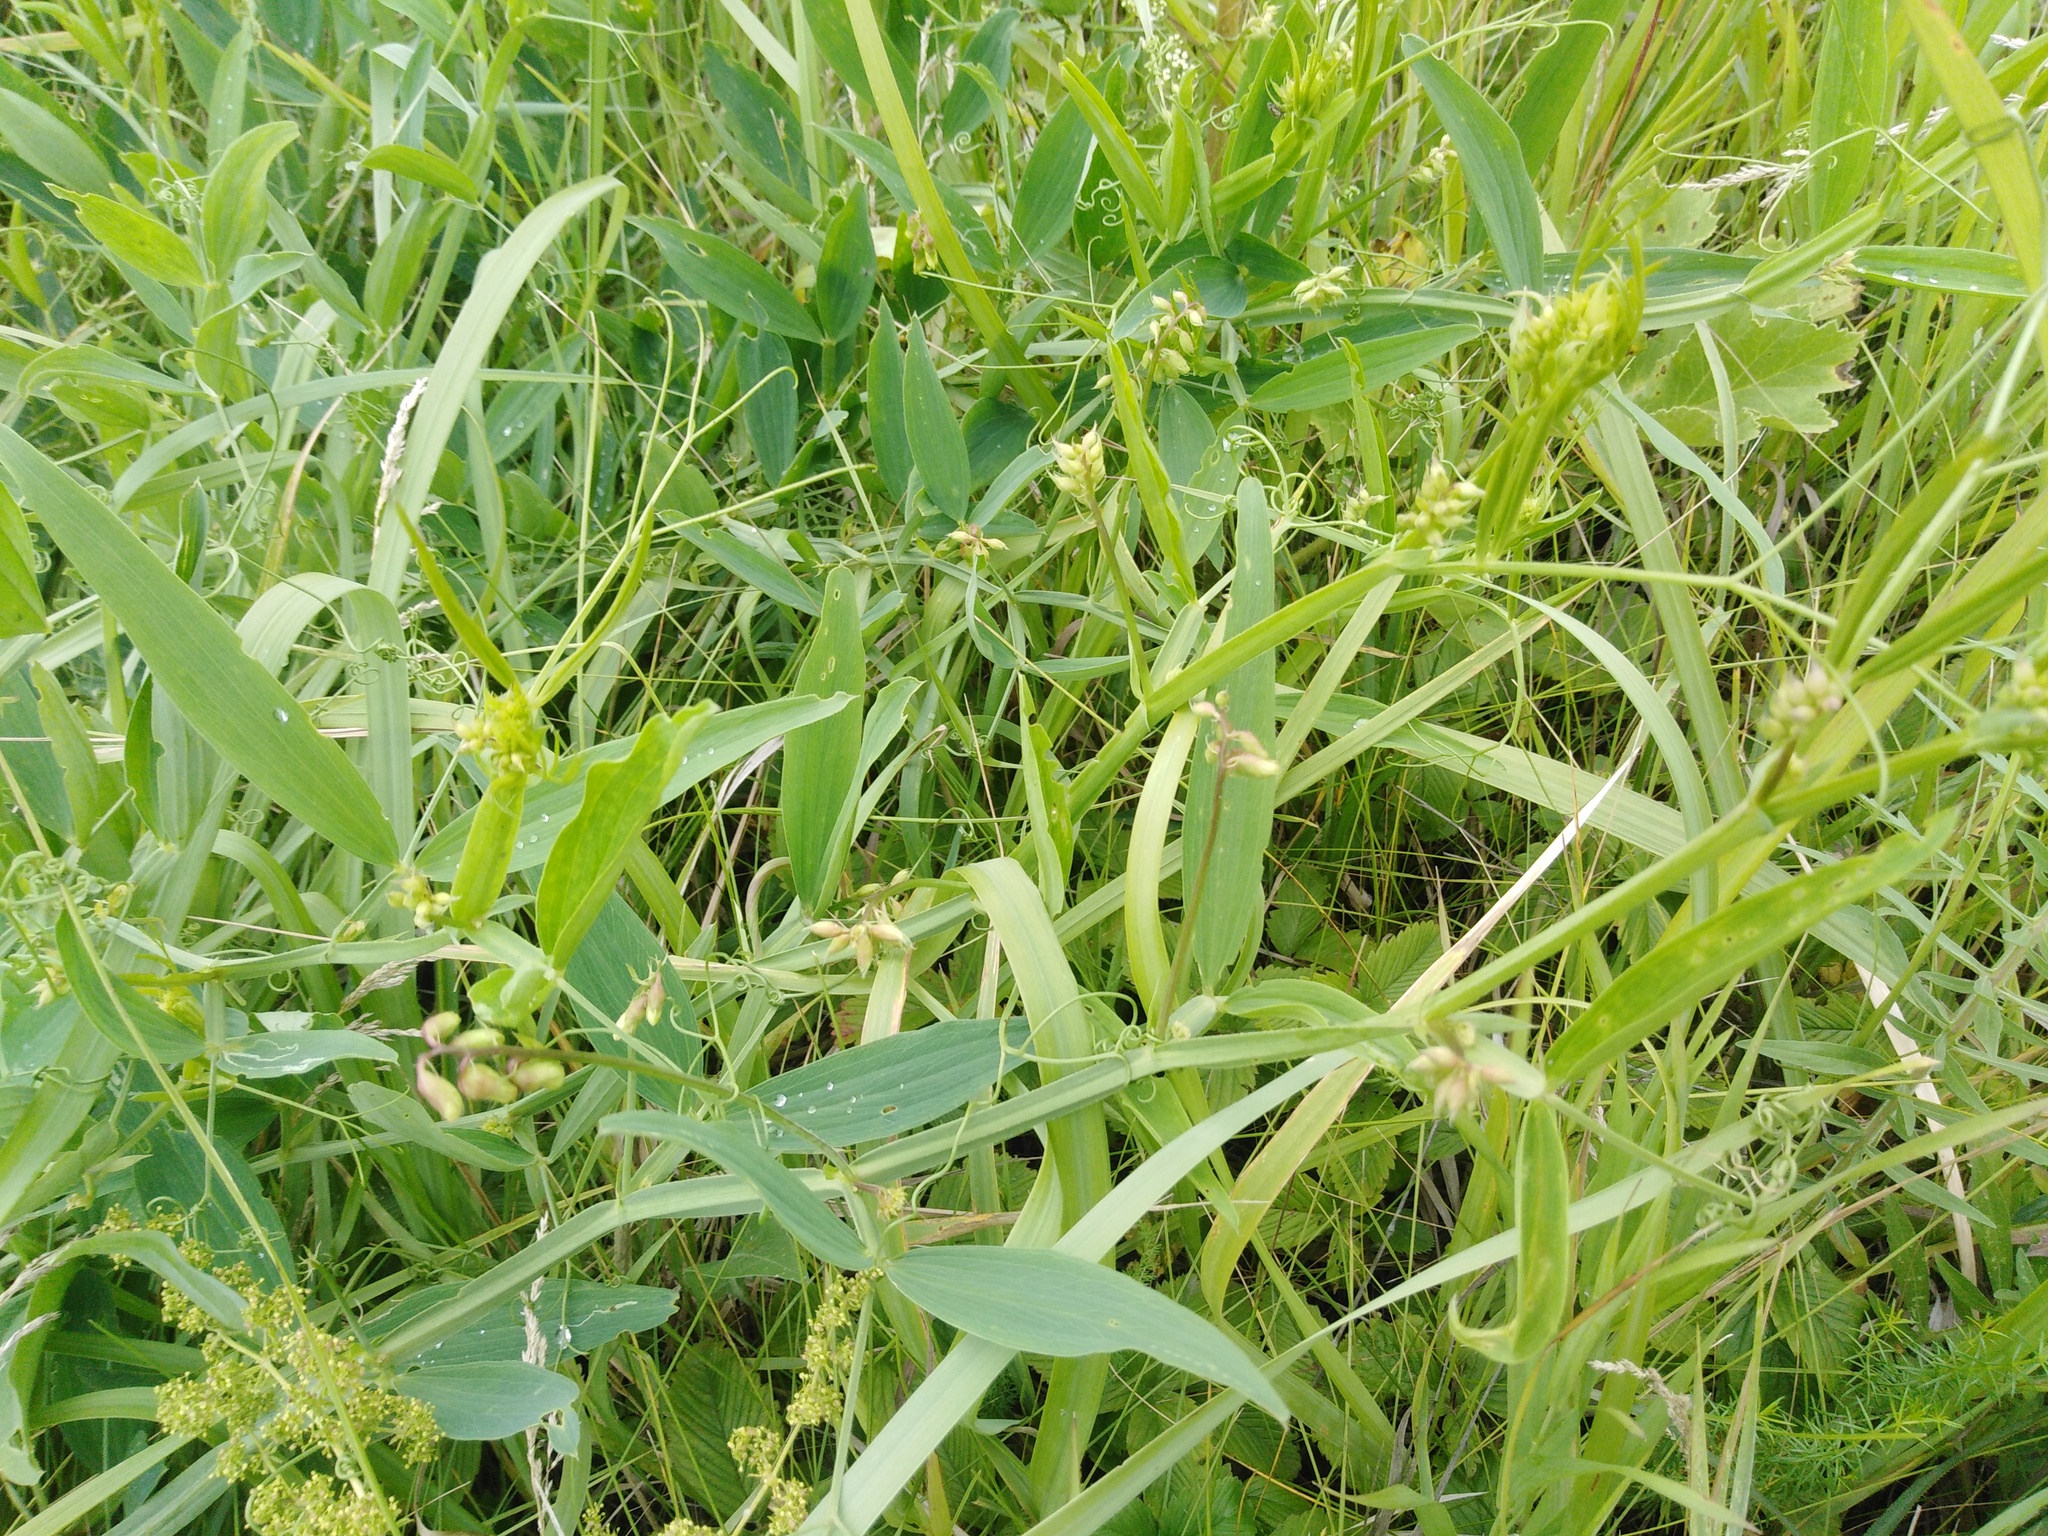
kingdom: Plantae
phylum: Tracheophyta
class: Magnoliopsida
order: Fabales
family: Fabaceae
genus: Lathyrus
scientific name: Lathyrus sylvestris
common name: Flat pea
